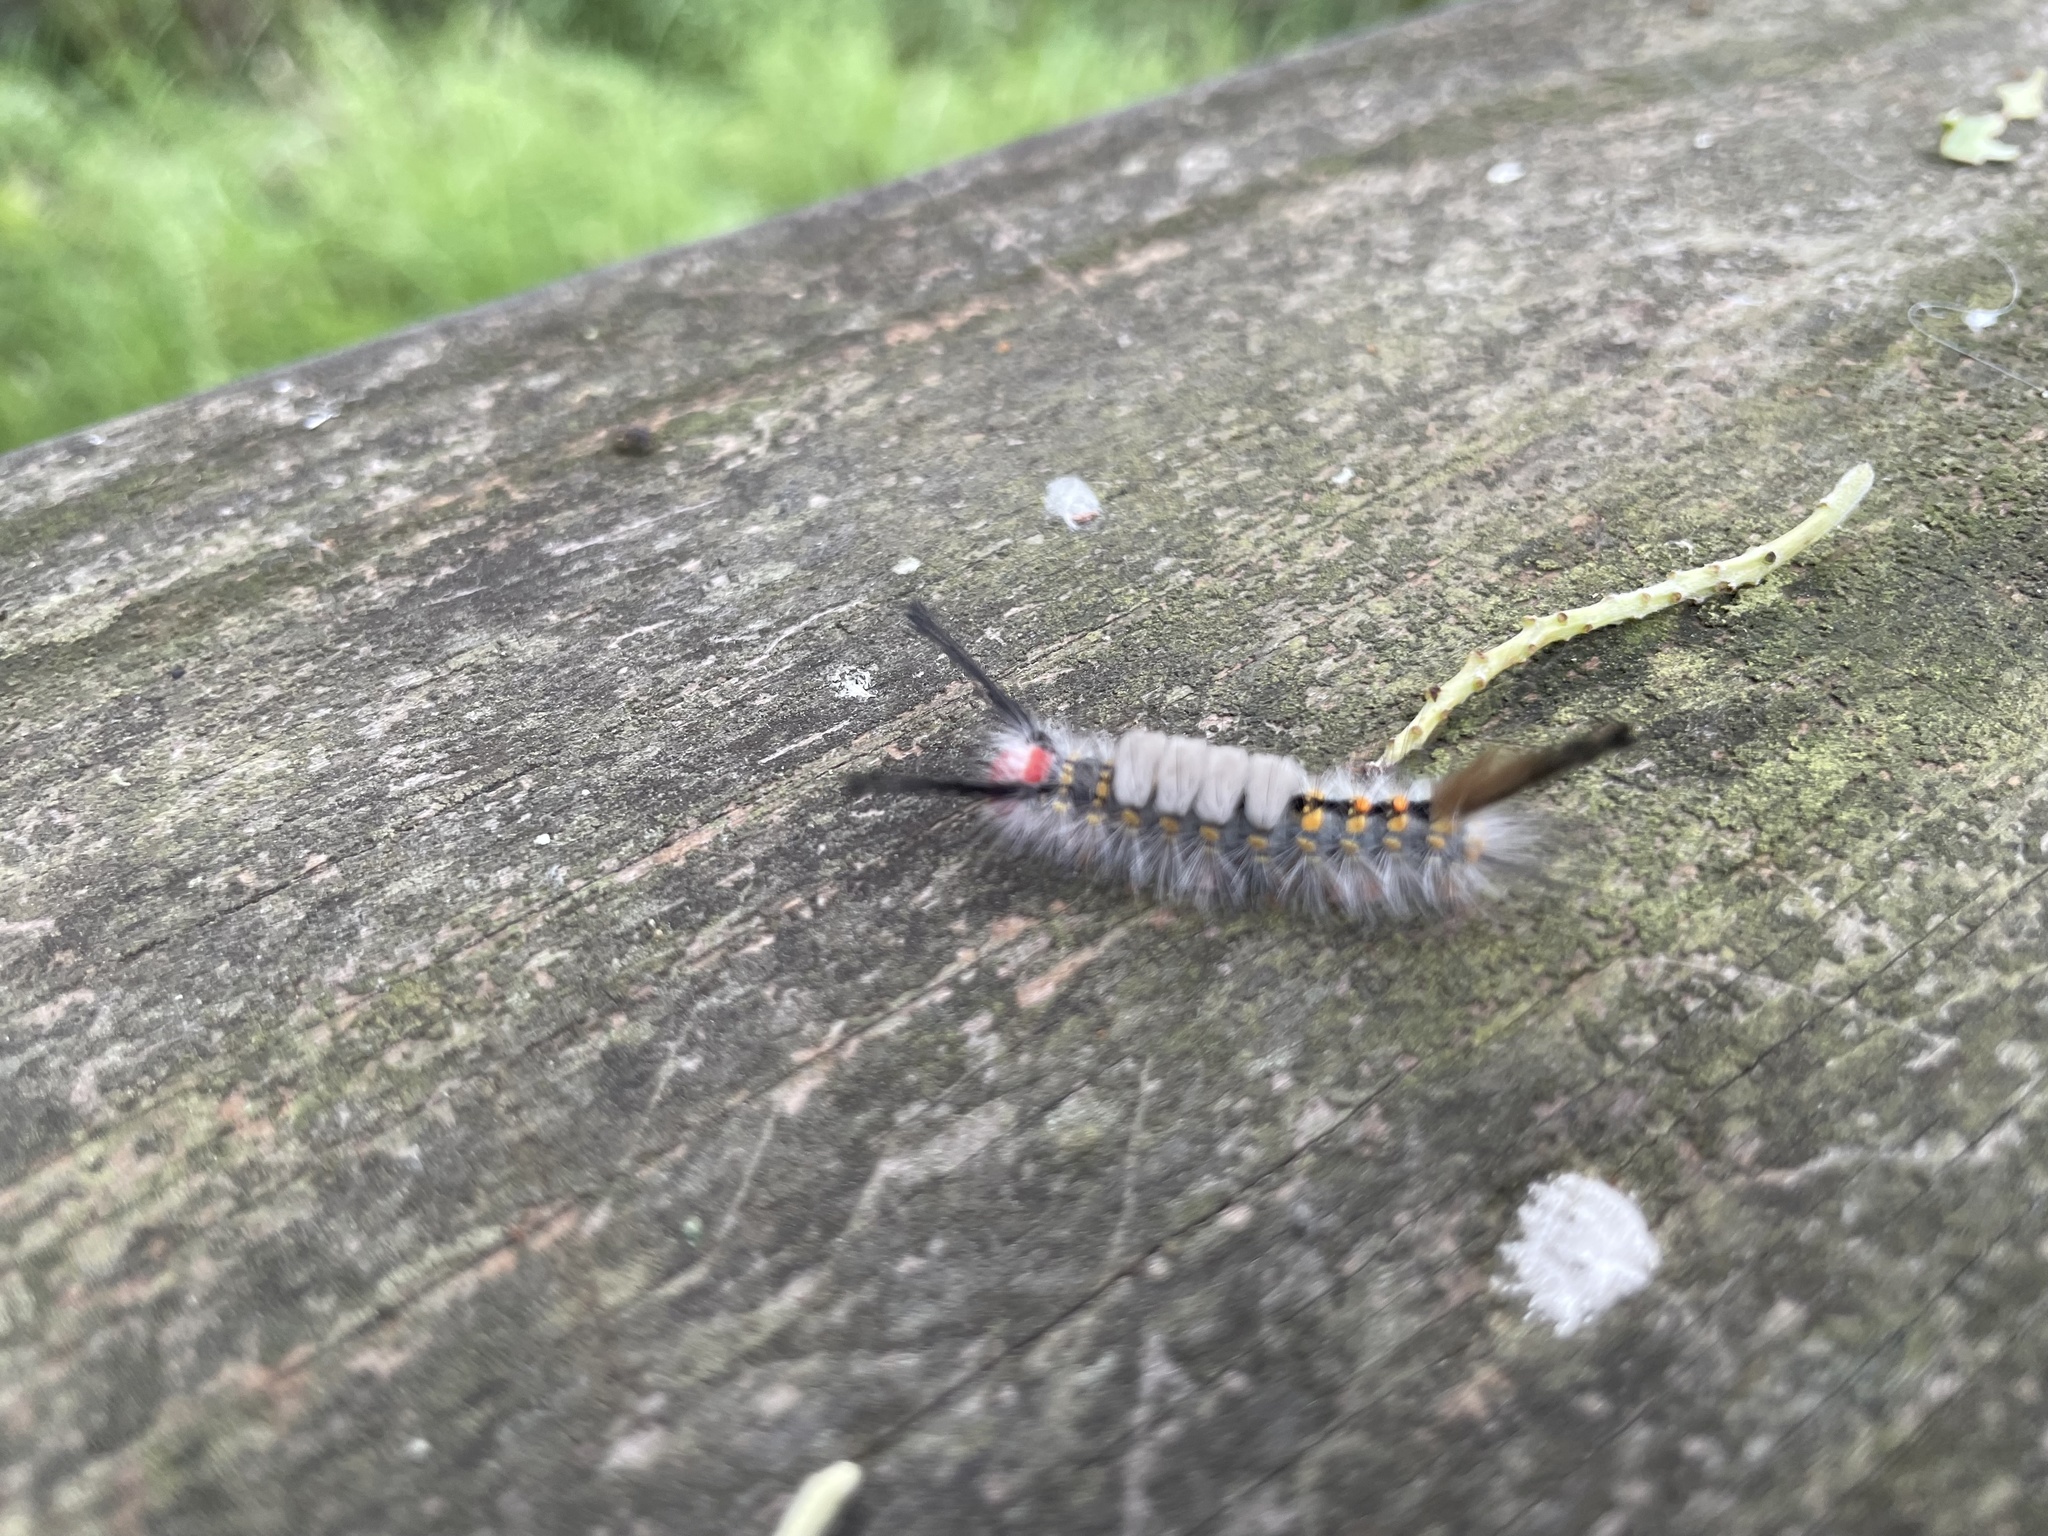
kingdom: Animalia
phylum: Arthropoda
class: Insecta
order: Lepidoptera
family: Erebidae
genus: Orgyia
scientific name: Orgyia detrita
